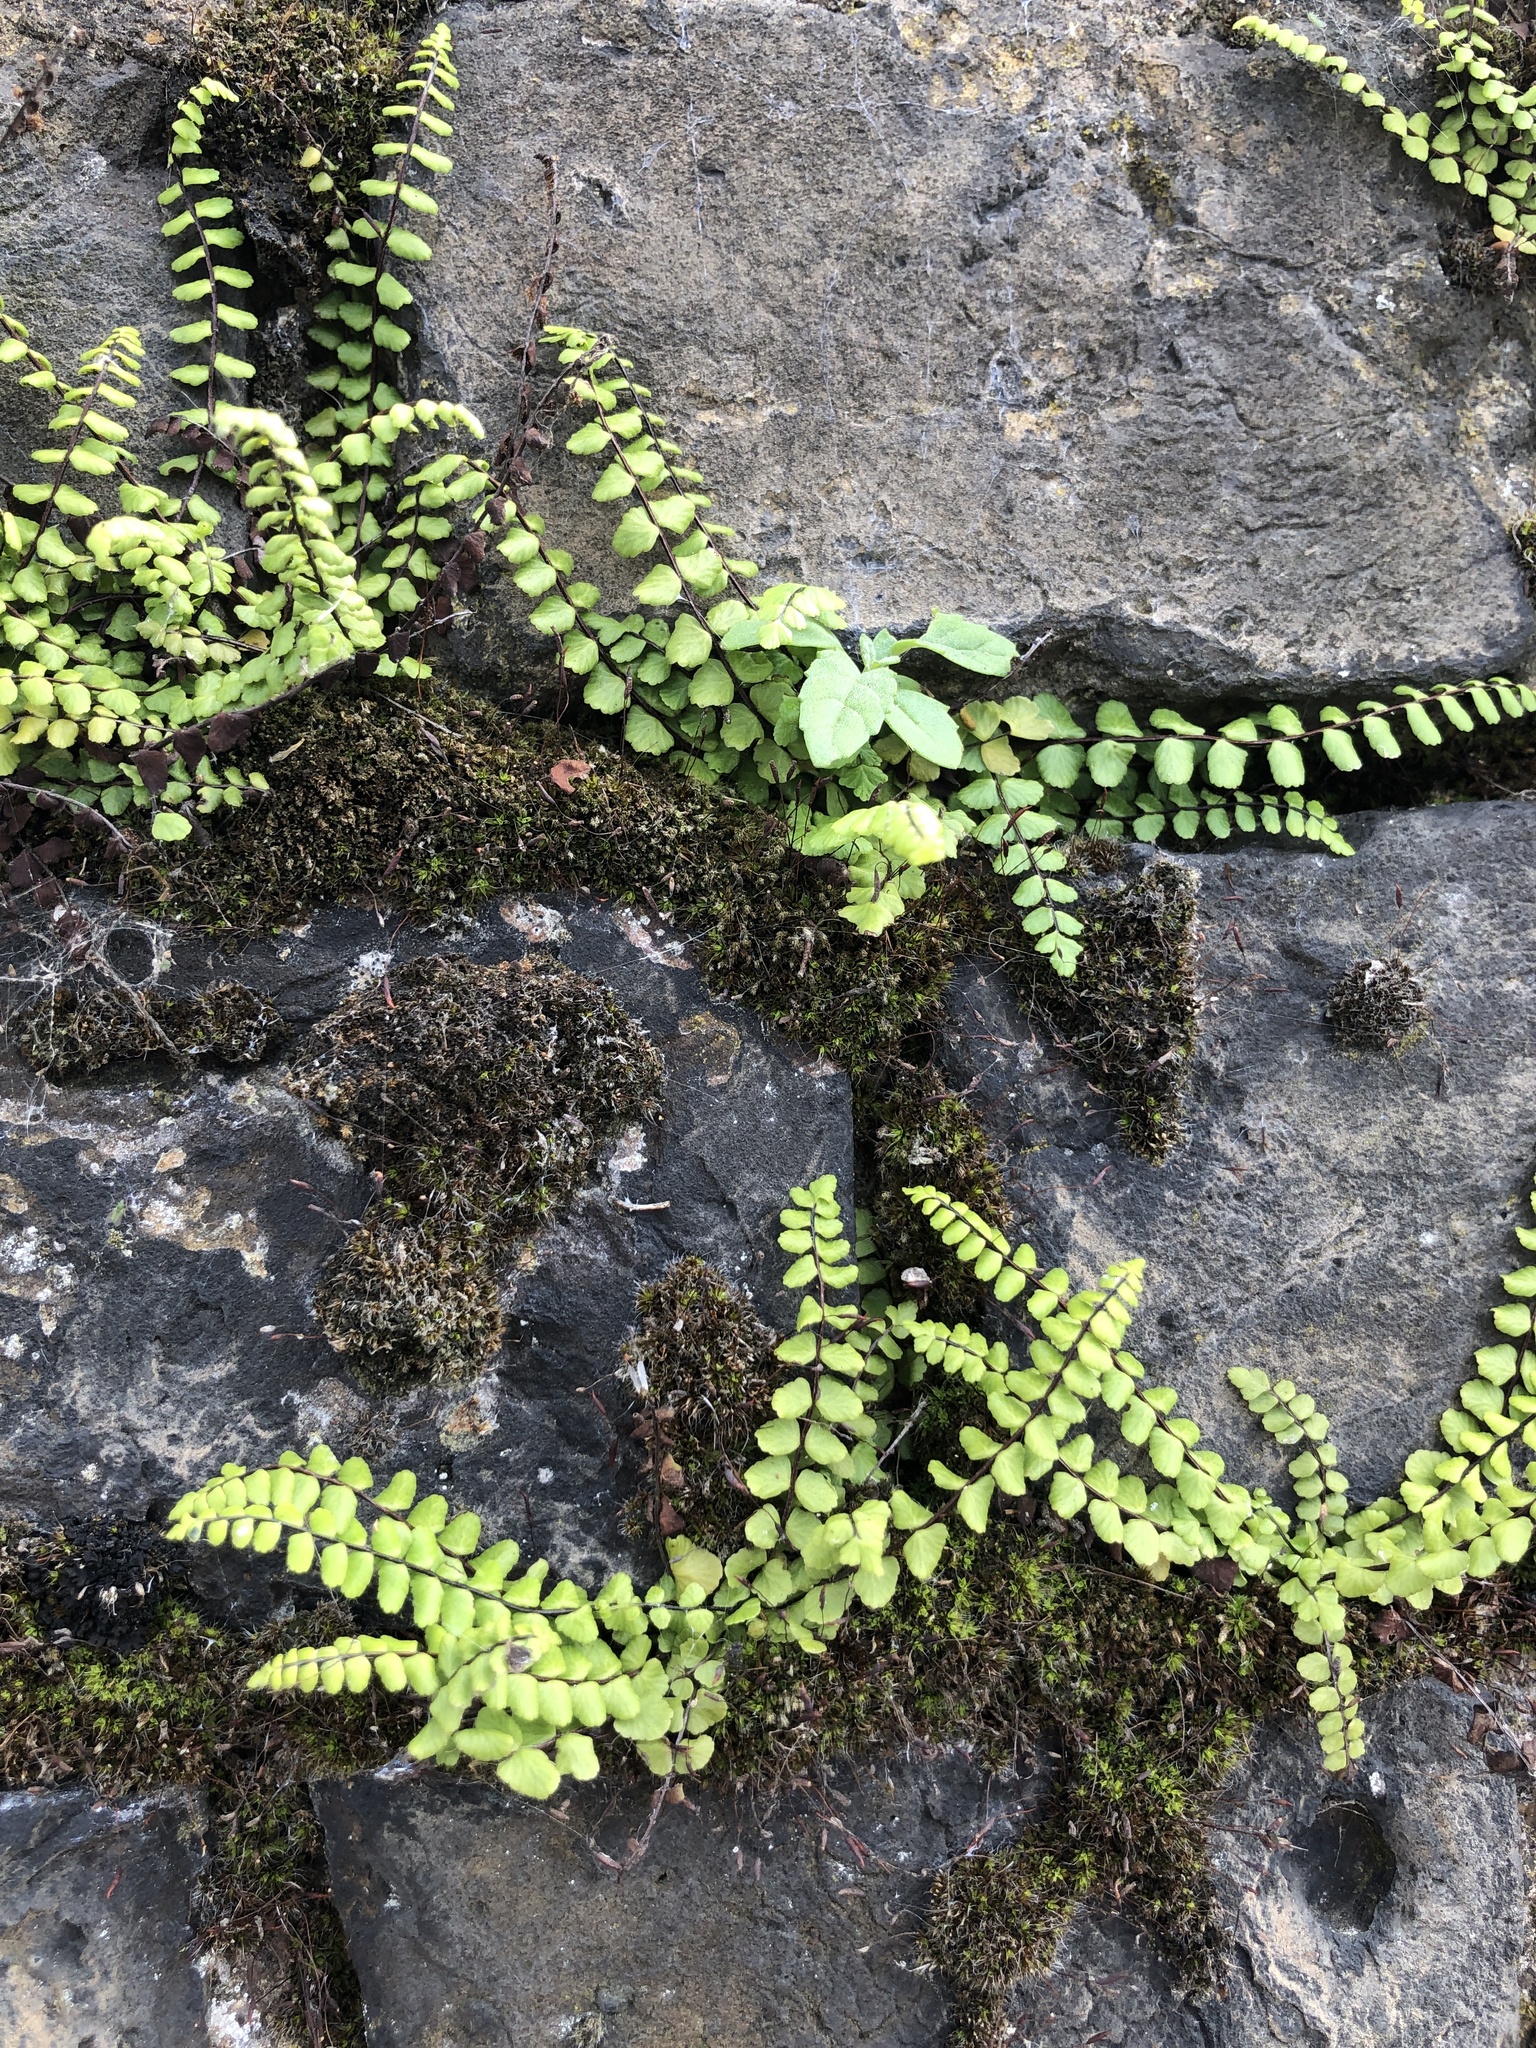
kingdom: Plantae
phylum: Tracheophyta
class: Polypodiopsida
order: Polypodiales
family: Aspleniaceae
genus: Asplenium
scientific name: Asplenium trichomanes
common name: Maidenhair spleenwort
